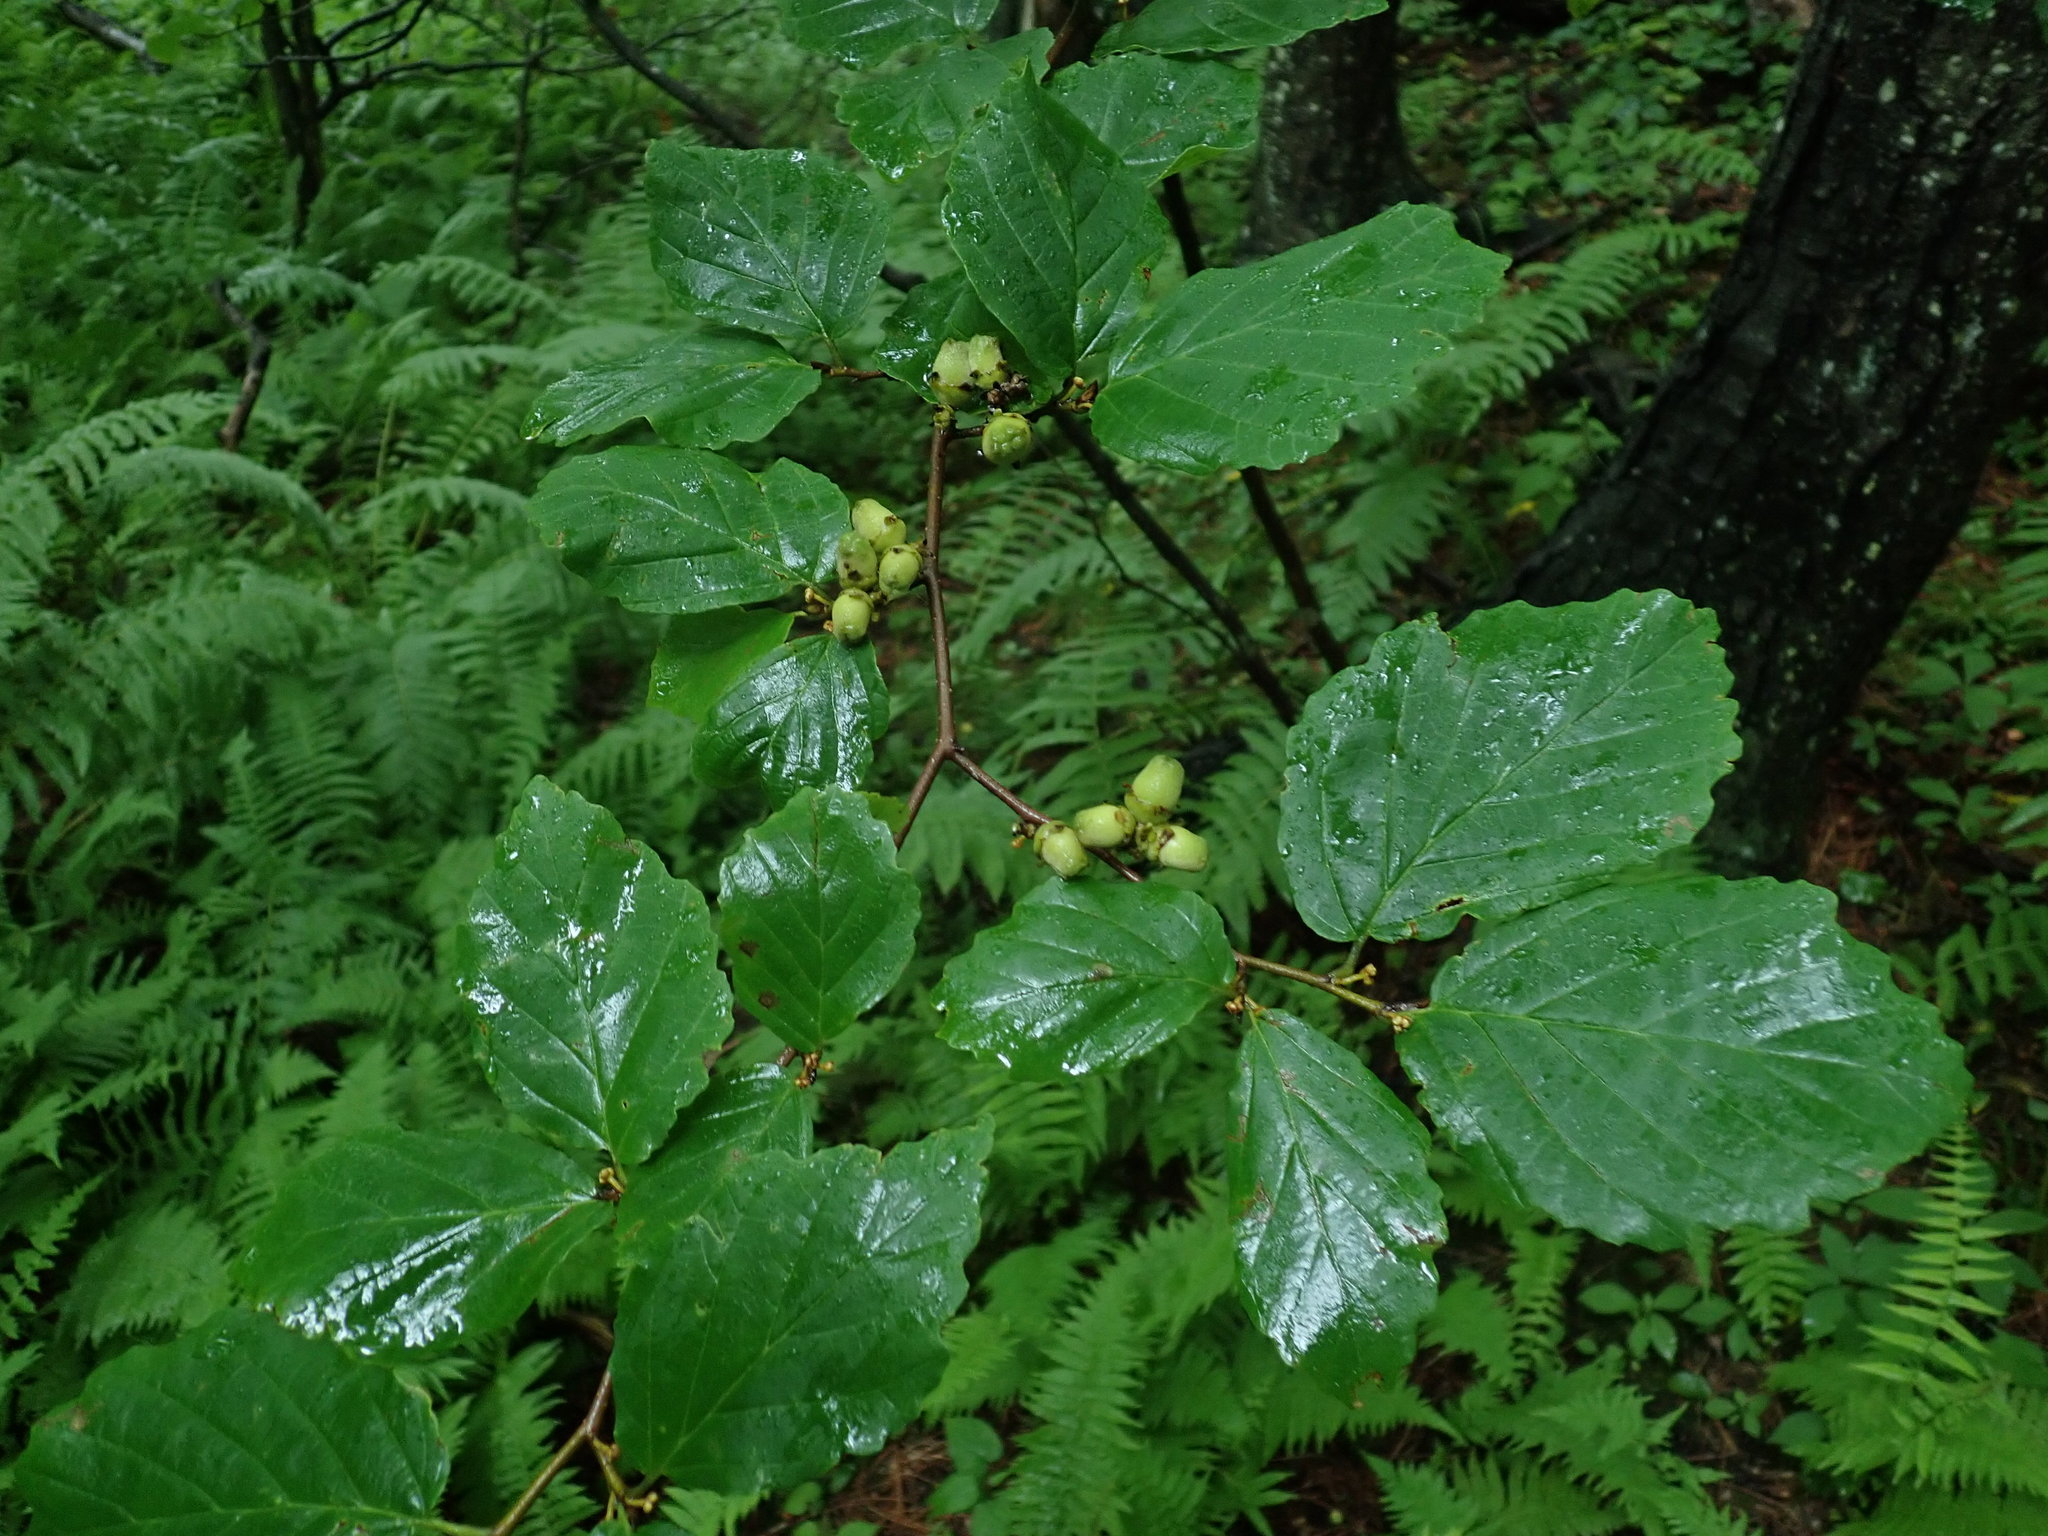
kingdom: Plantae
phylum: Tracheophyta
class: Magnoliopsida
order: Saxifragales
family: Hamamelidaceae
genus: Hamamelis
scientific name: Hamamelis virginiana
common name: Witch-hazel
